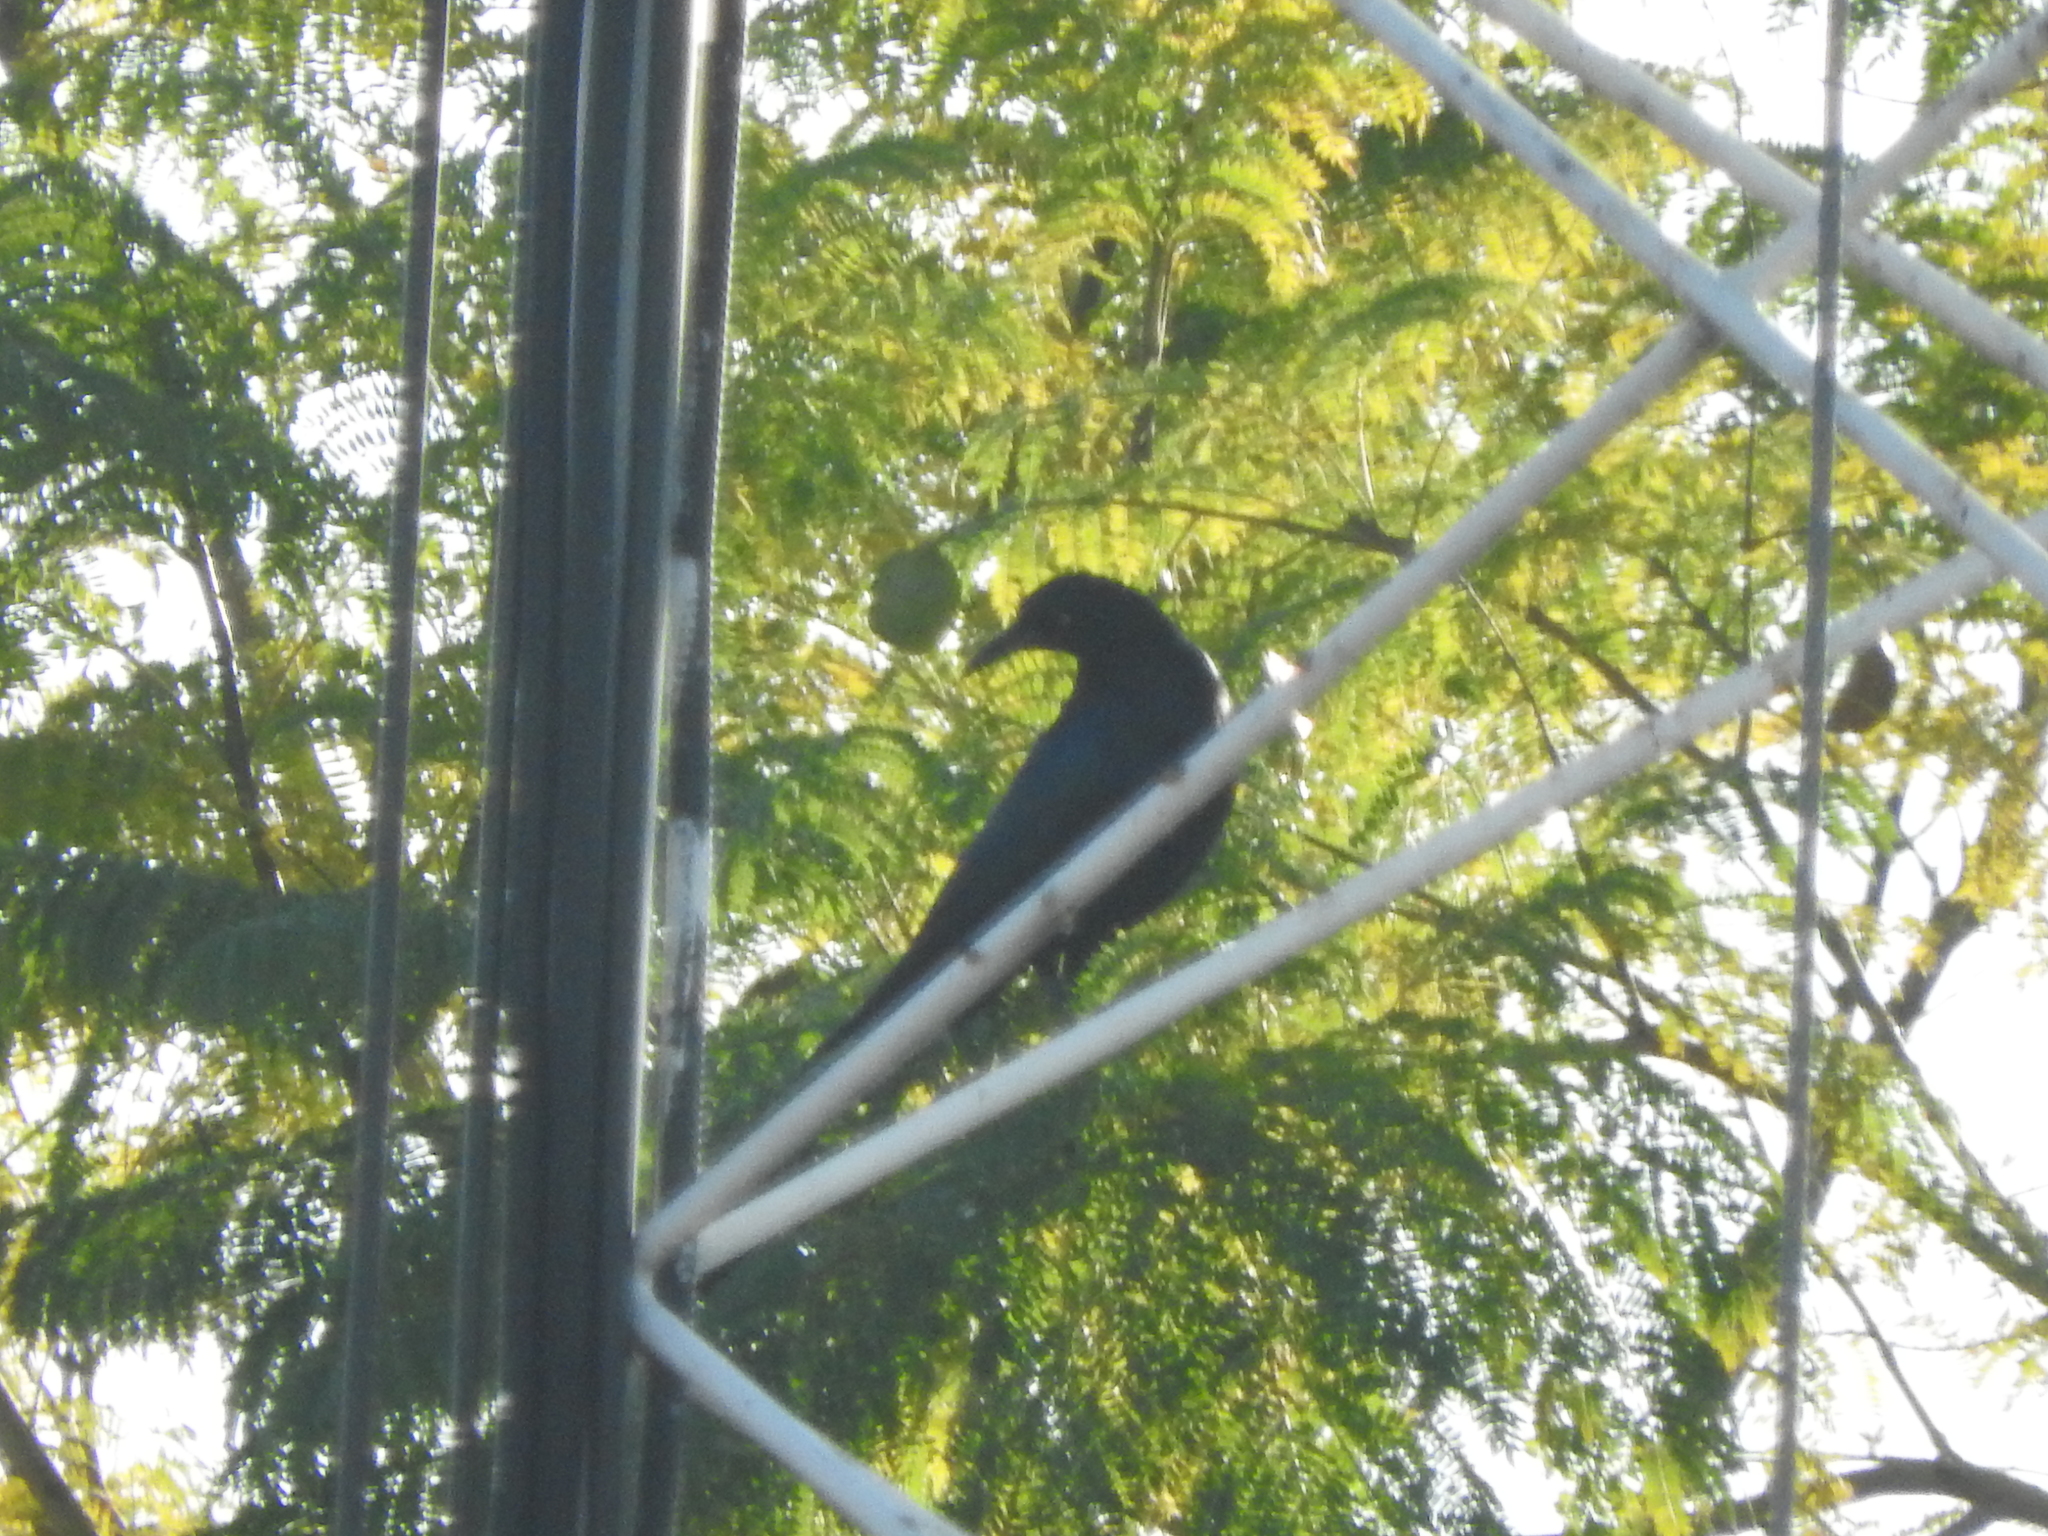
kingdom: Animalia
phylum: Chordata
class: Aves
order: Passeriformes
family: Icteridae
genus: Quiscalus
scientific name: Quiscalus mexicanus
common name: Great-tailed grackle
